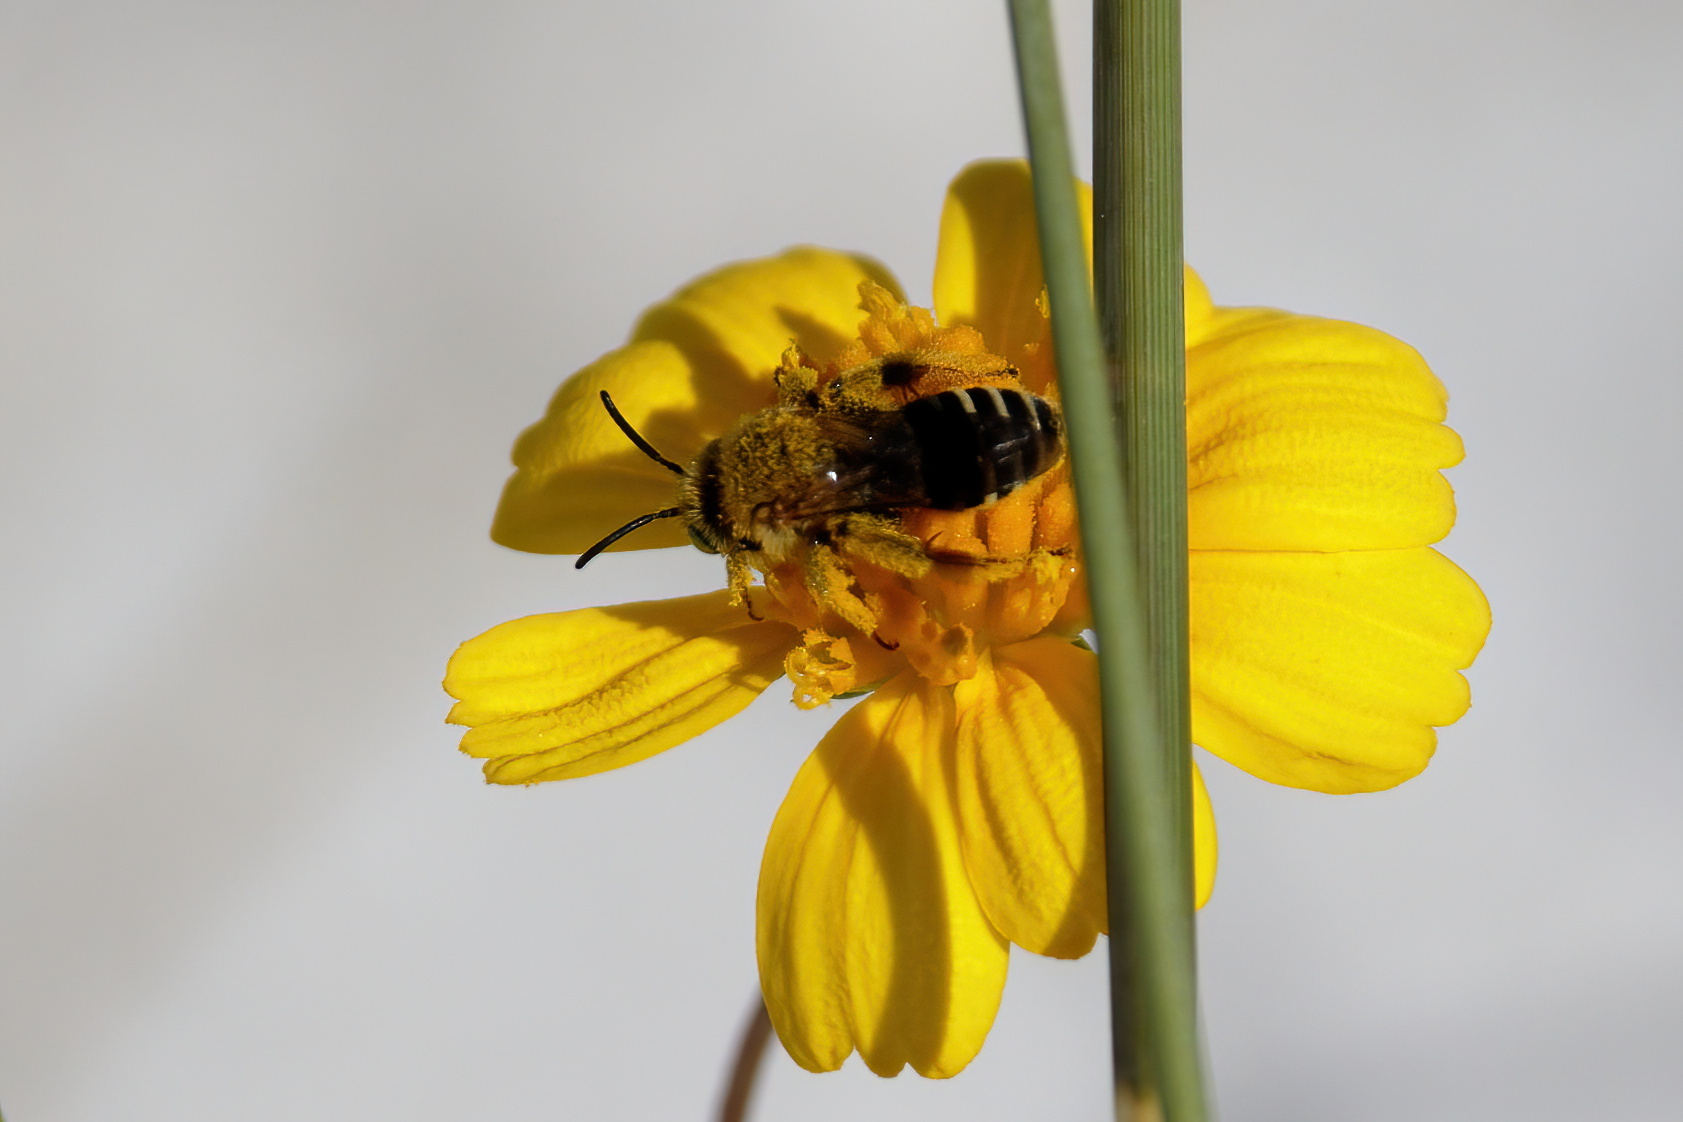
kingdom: Animalia
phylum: Arthropoda
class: Insecta
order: Hymenoptera
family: Melittidae
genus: Hesperapis
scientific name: Hesperapis oraria
